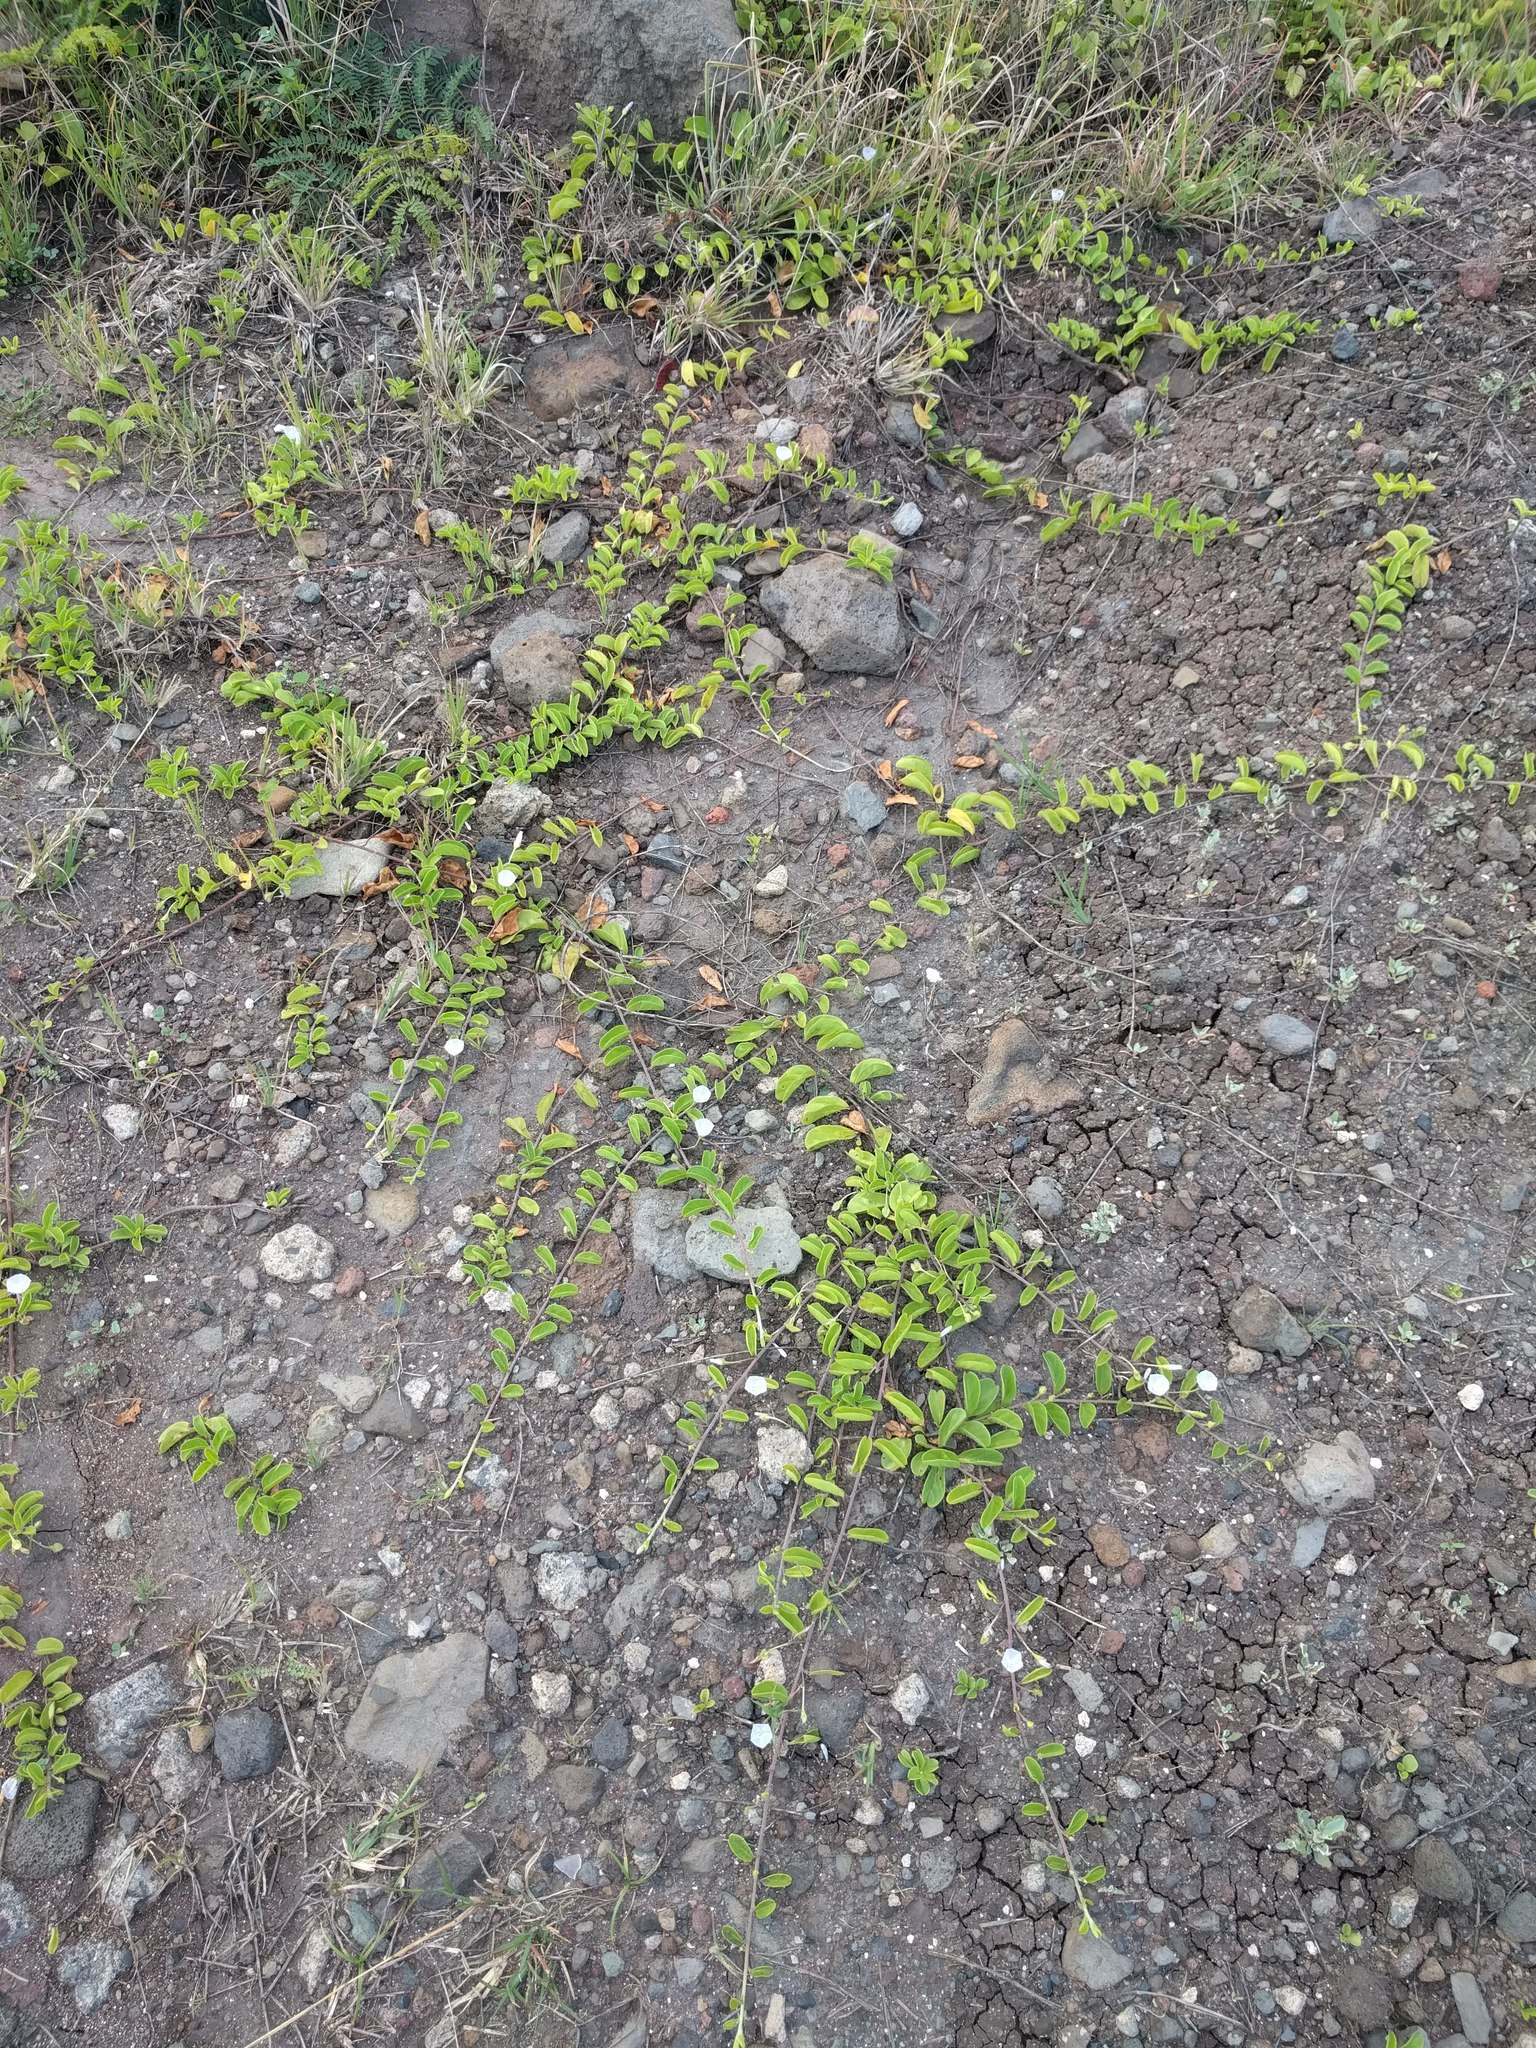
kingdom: Plantae
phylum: Tracheophyta
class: Magnoliopsida
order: Solanales
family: Convolvulaceae
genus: Jacquemontia
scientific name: Jacquemontia sandwicensis
